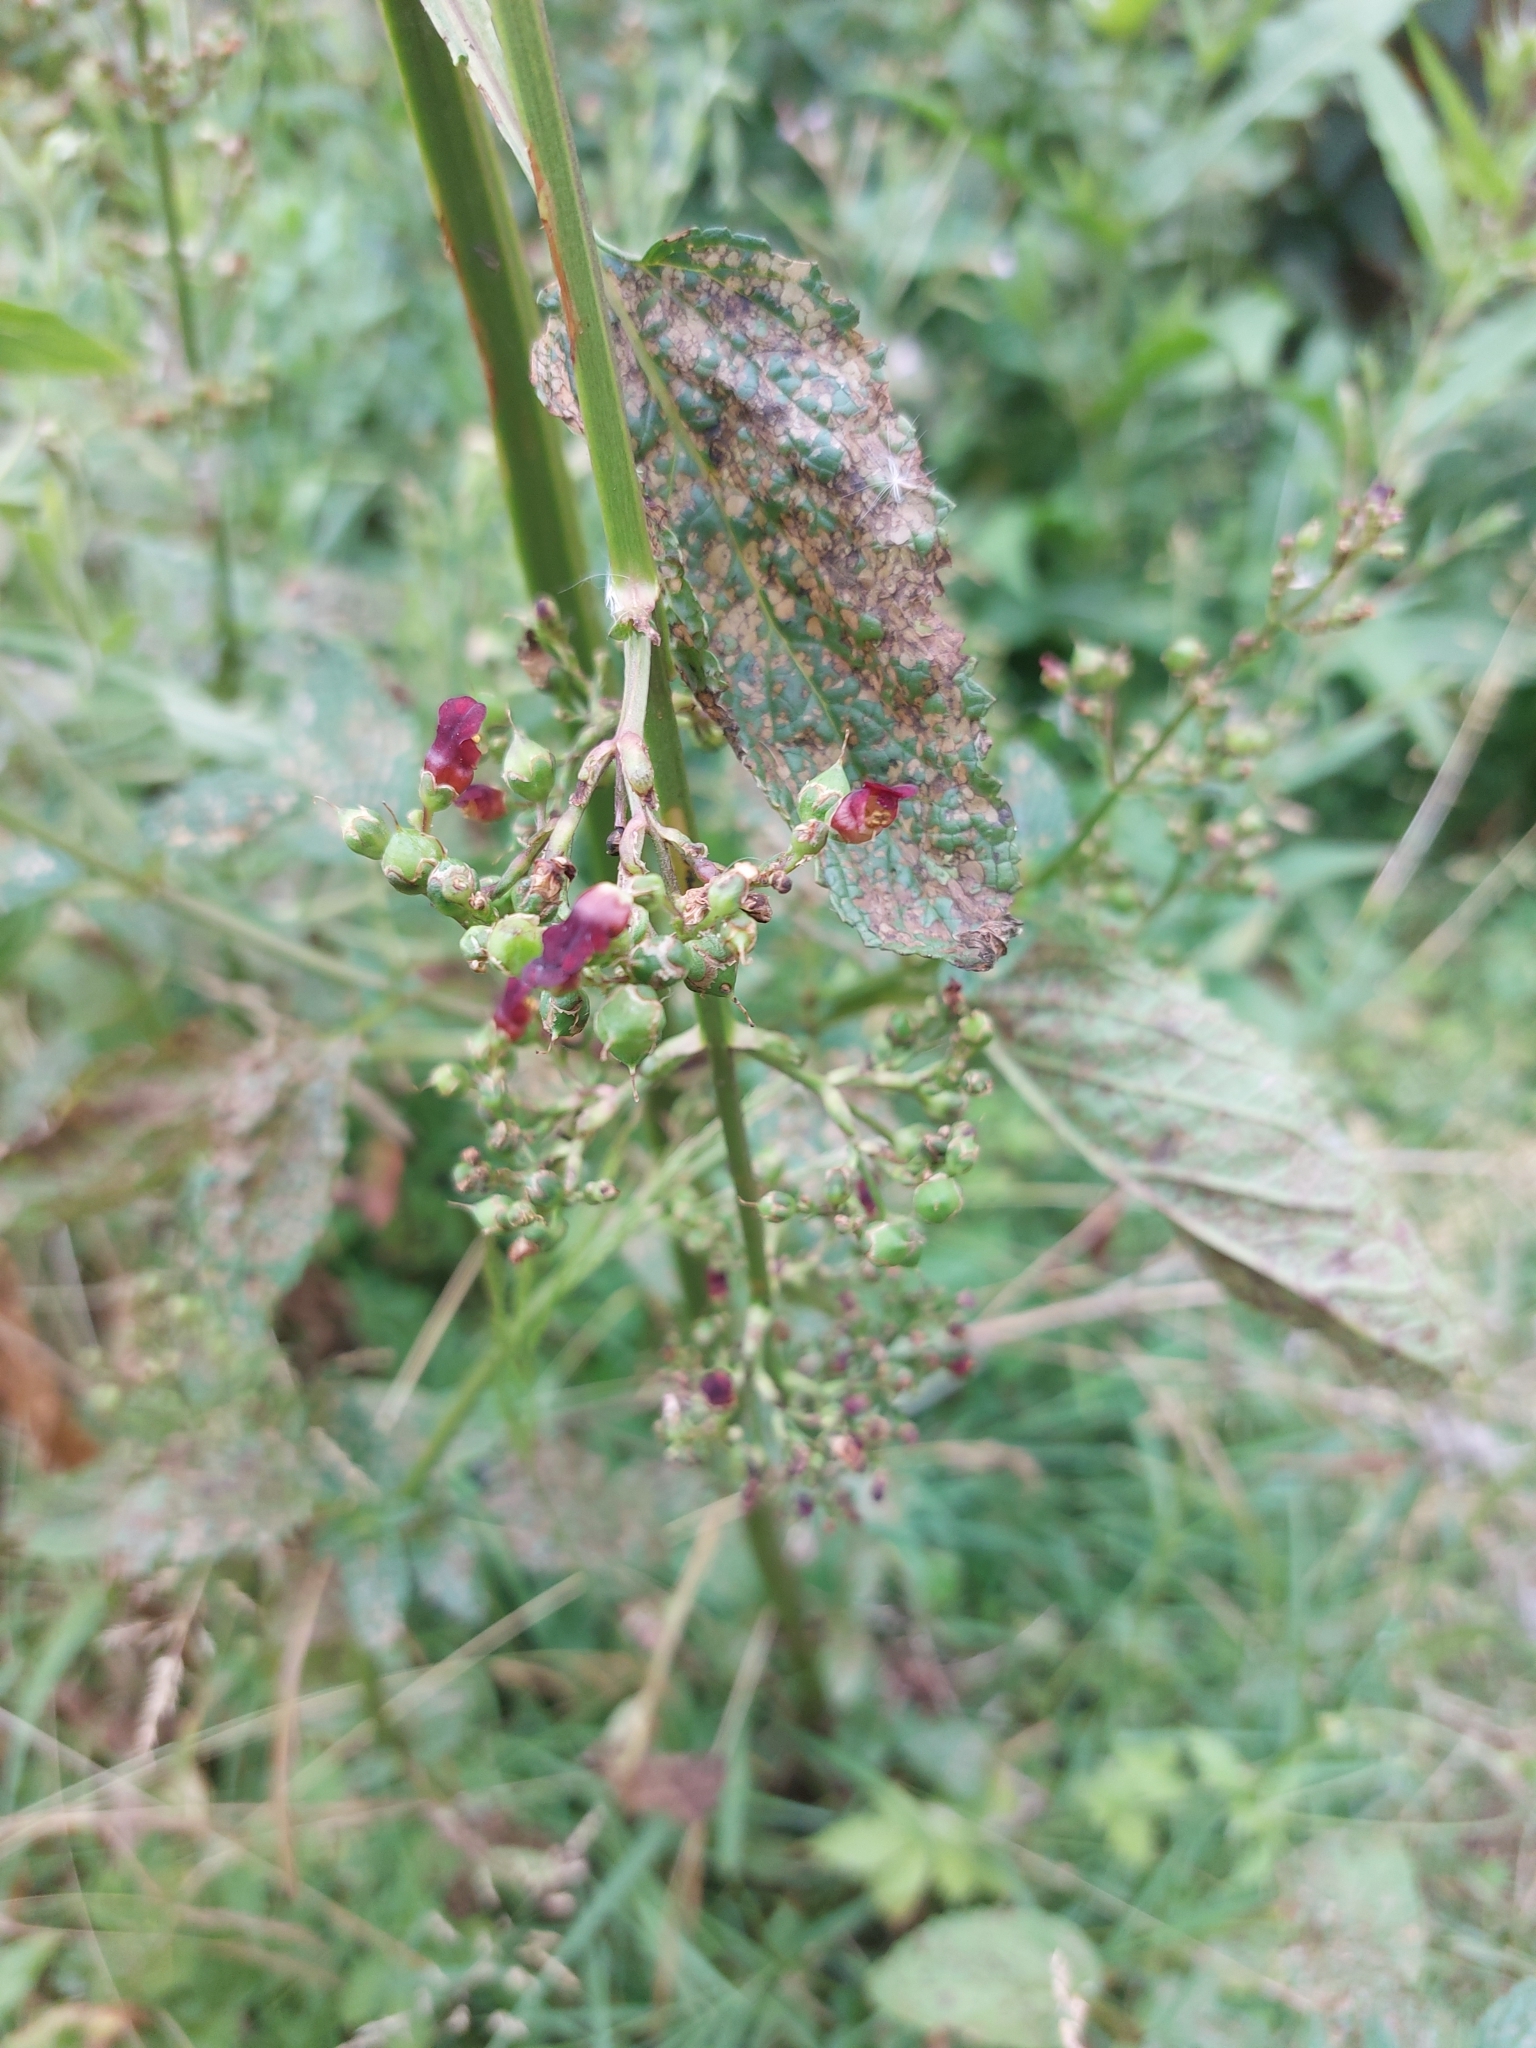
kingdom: Plantae
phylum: Tracheophyta
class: Magnoliopsida
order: Lamiales
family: Scrophulariaceae
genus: Scrophularia
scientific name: Scrophularia auriculata
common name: Water betony
